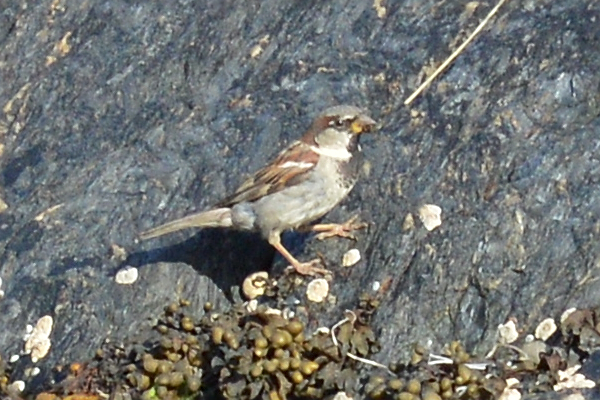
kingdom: Animalia
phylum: Chordata
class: Aves
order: Passeriformes
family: Passeridae
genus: Passer
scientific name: Passer domesticus
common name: House sparrow
